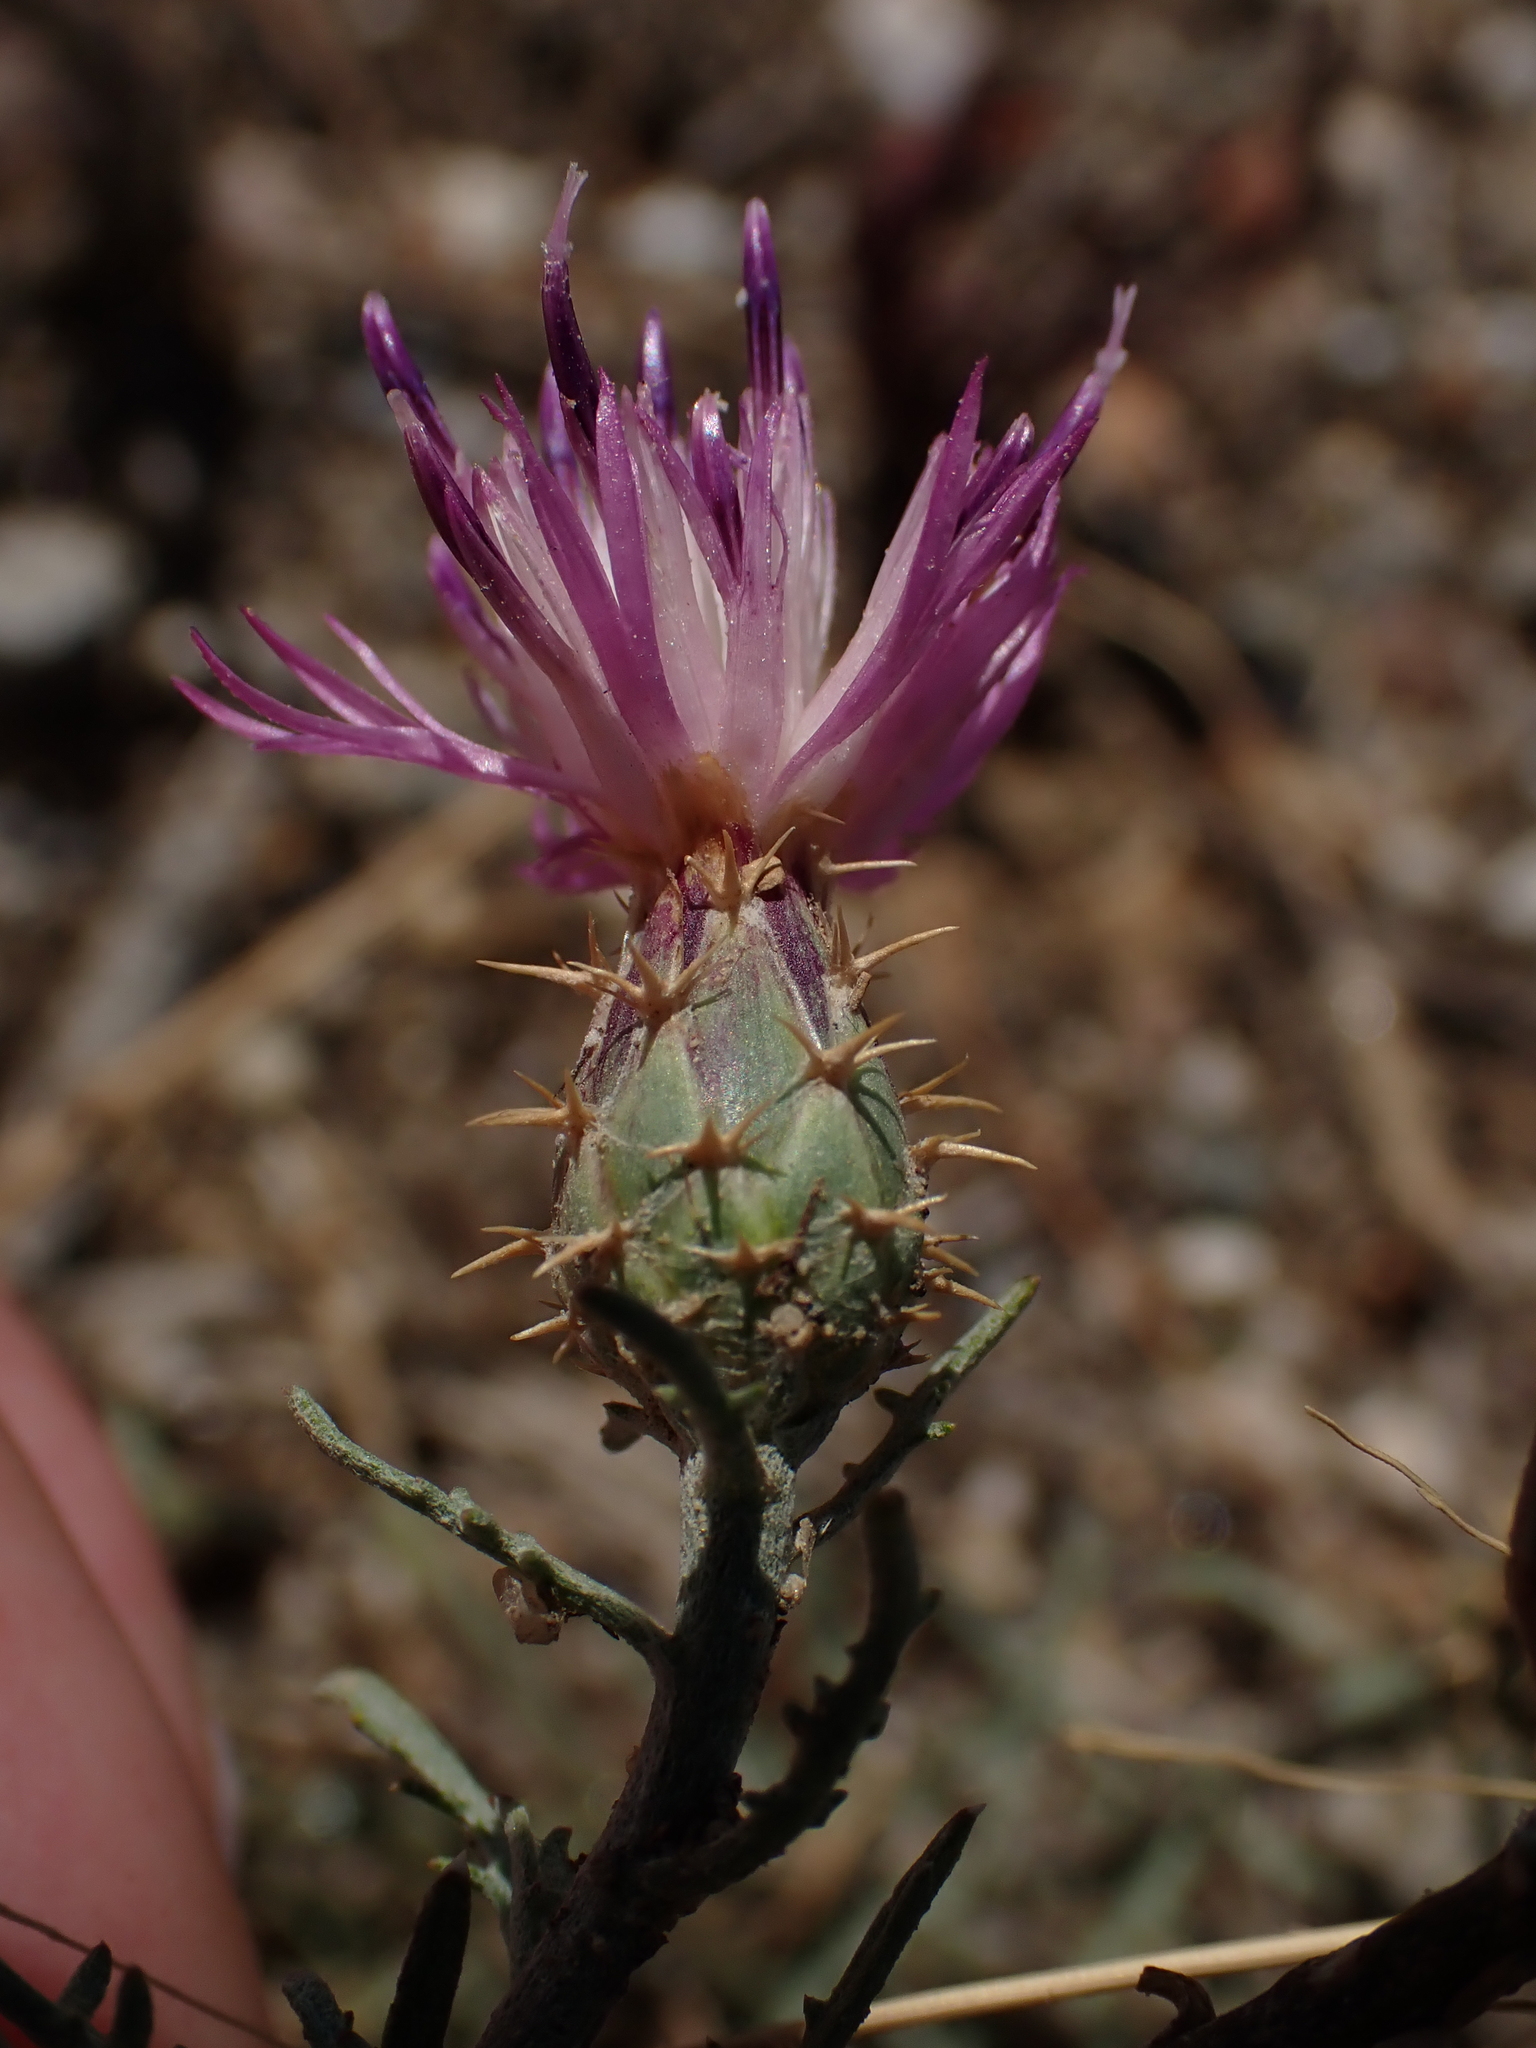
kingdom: Plantae
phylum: Tracheophyta
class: Magnoliopsida
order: Asterales
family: Asteraceae
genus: Centaurea
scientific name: Centaurea aspera
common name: Rough star-thistle
